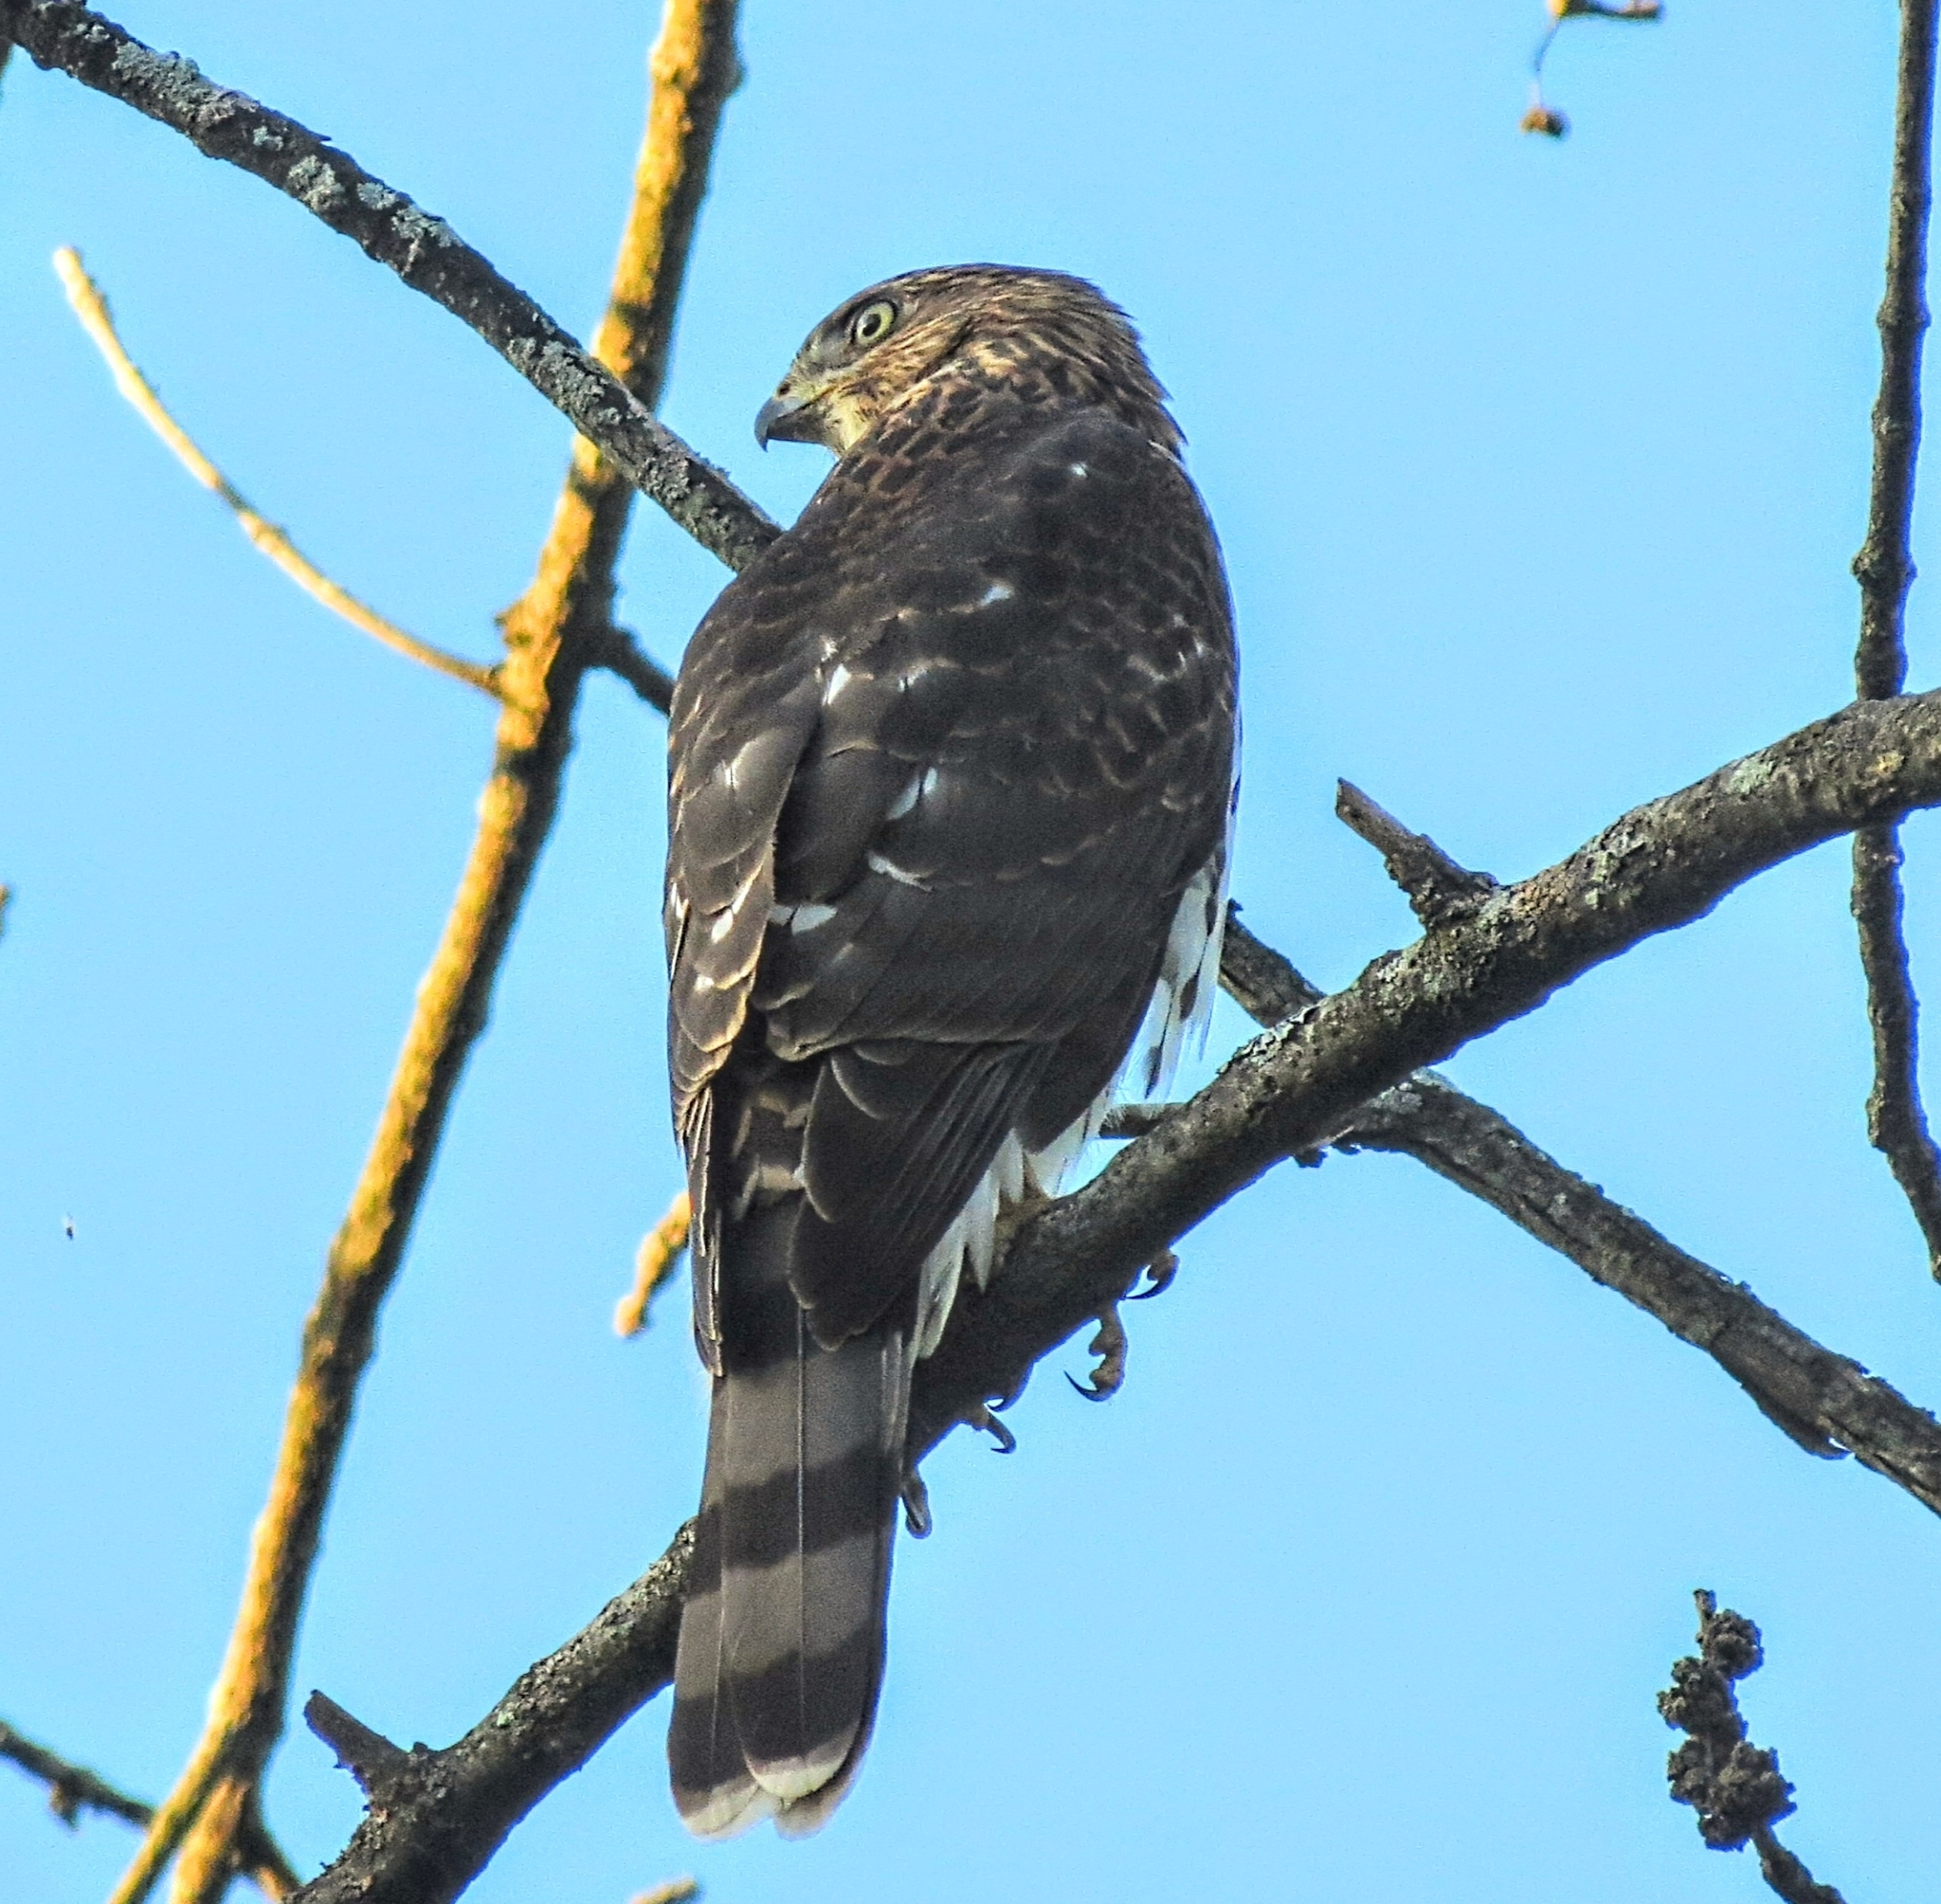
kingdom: Animalia
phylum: Chordata
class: Aves
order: Accipitriformes
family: Accipitridae
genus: Accipiter
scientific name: Accipiter cooperii
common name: Cooper's hawk
